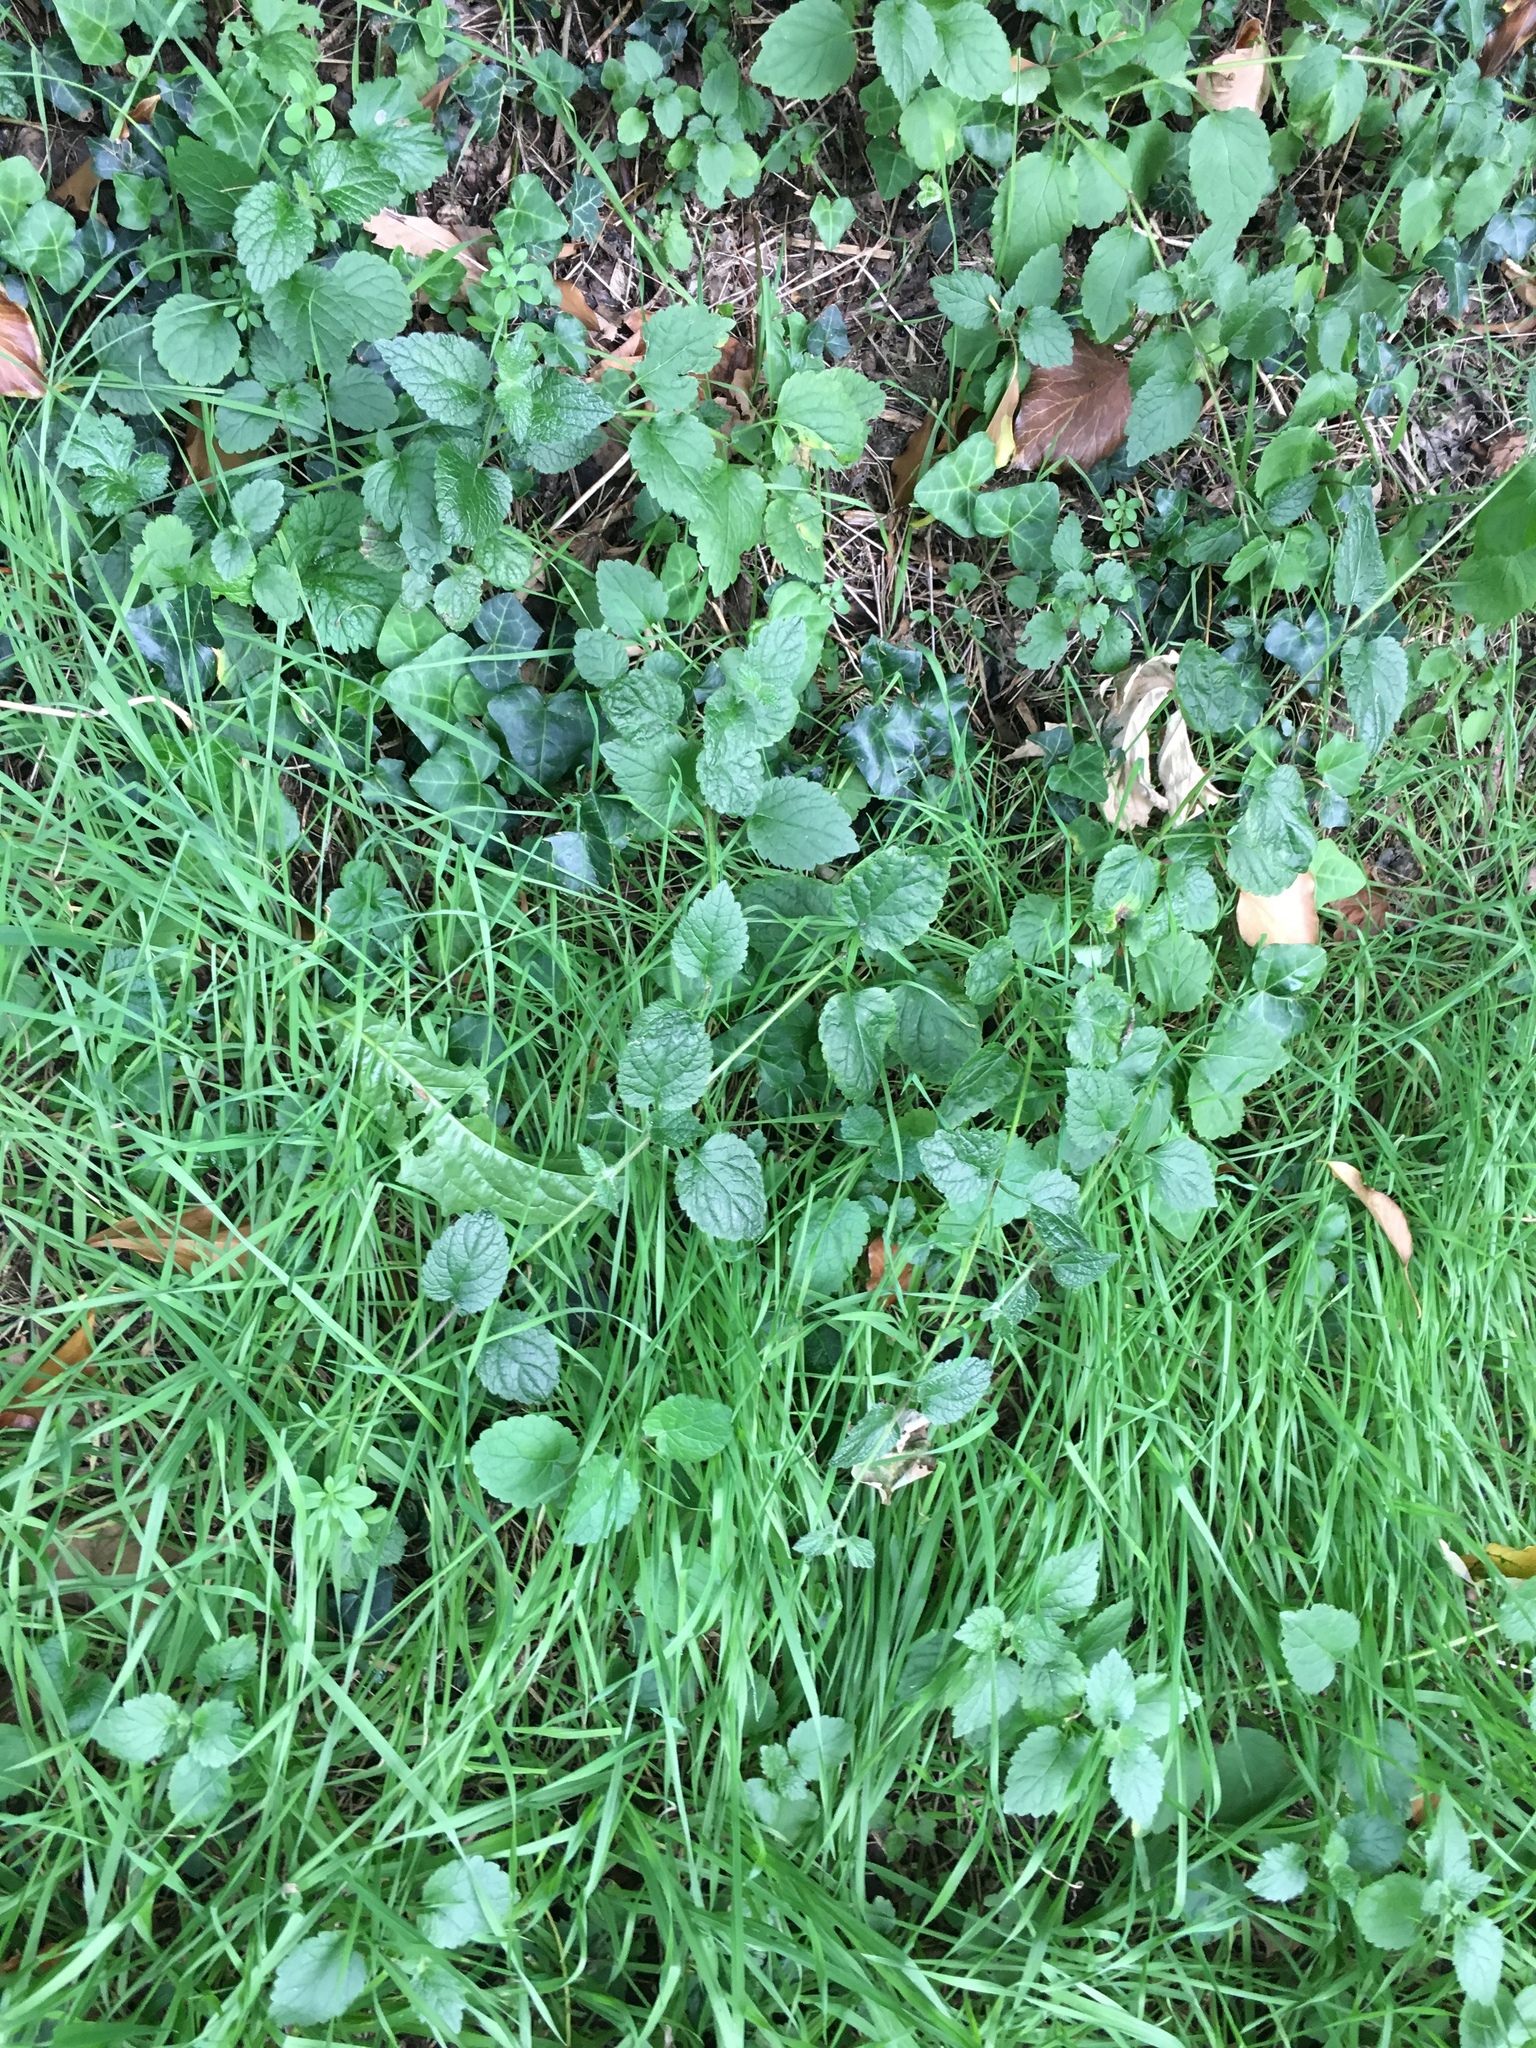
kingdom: Plantae
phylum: Tracheophyta
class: Magnoliopsida
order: Lamiales
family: Lamiaceae
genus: Lamium
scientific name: Lamium galeobdolon
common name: Yellow archangel
